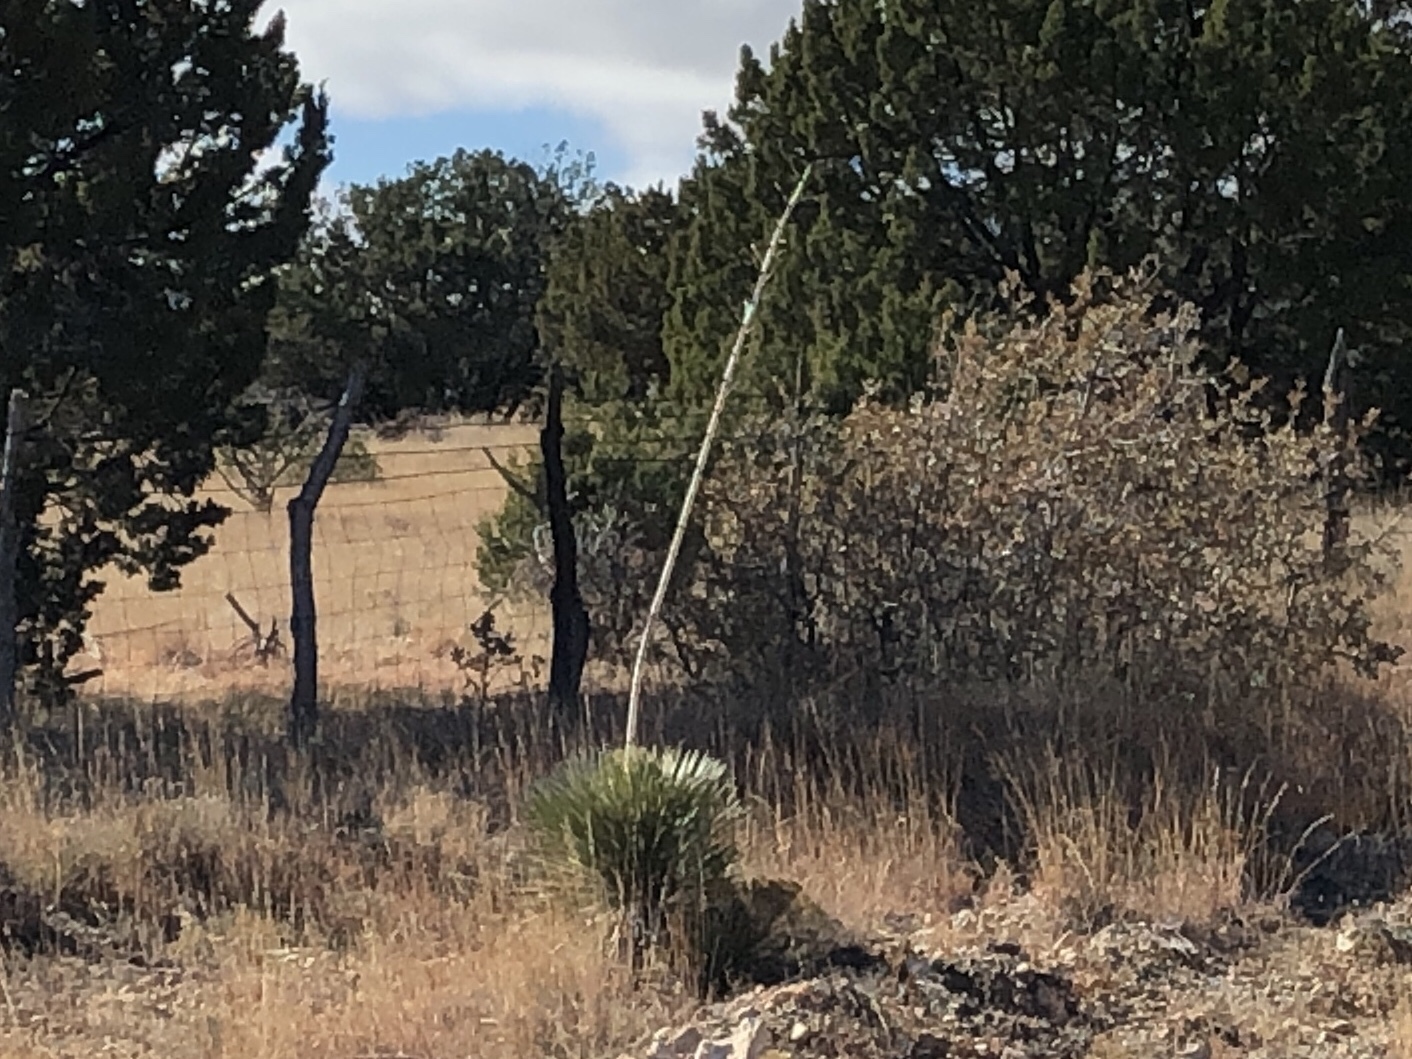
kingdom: Plantae
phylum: Tracheophyta
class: Liliopsida
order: Asparagales
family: Asparagaceae
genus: Yucca
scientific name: Yucca elata
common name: Palmella
